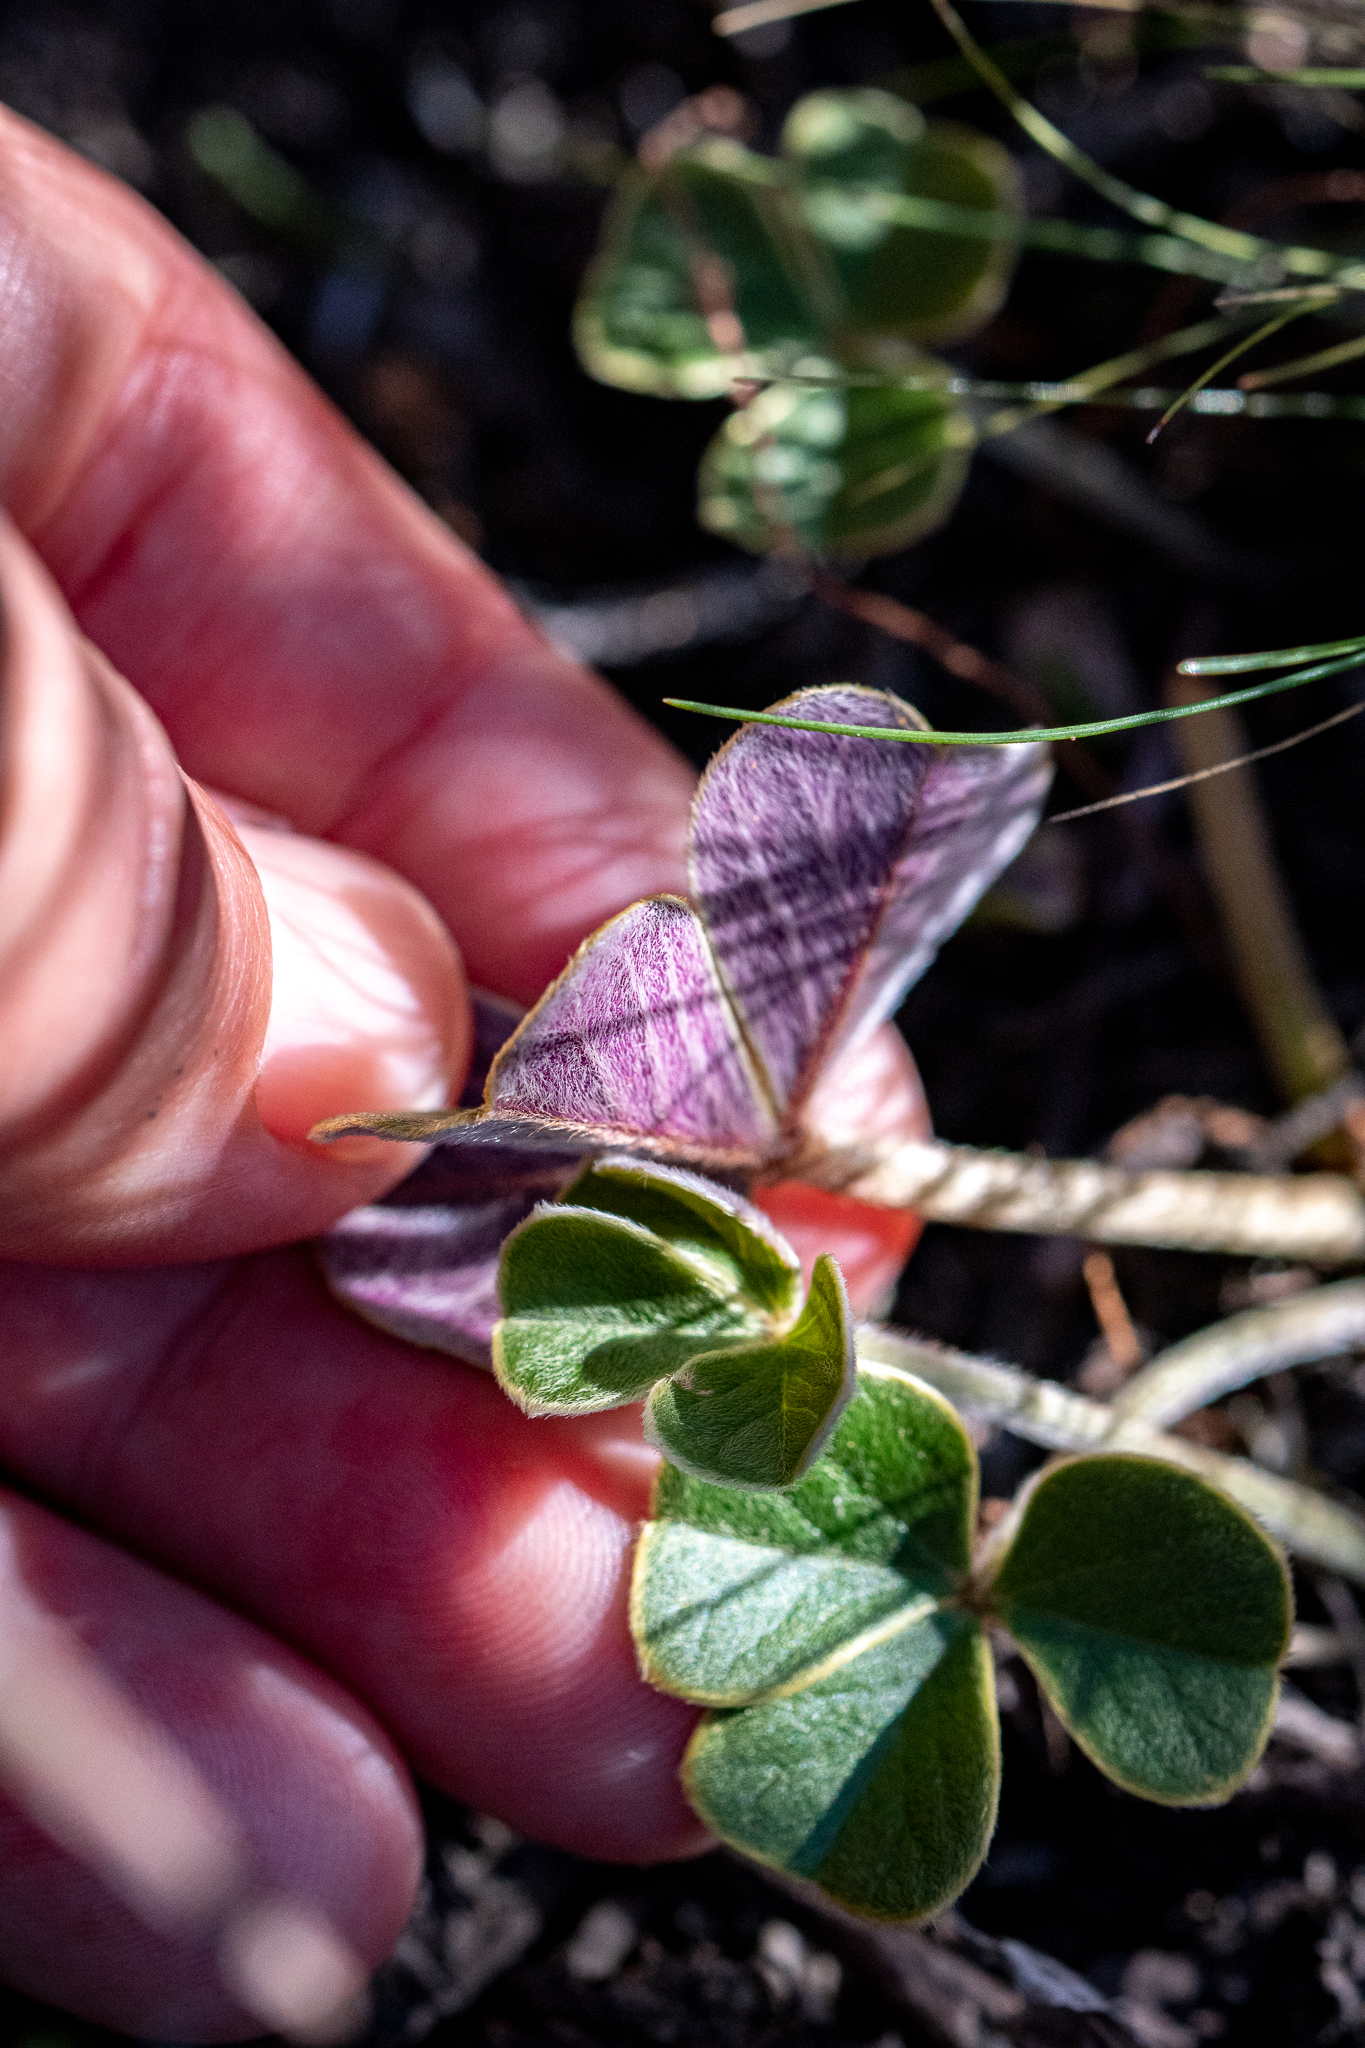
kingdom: Plantae
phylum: Tracheophyta
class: Magnoliopsida
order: Oxalidales
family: Oxalidaceae
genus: Oxalis
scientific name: Oxalis truncatula
